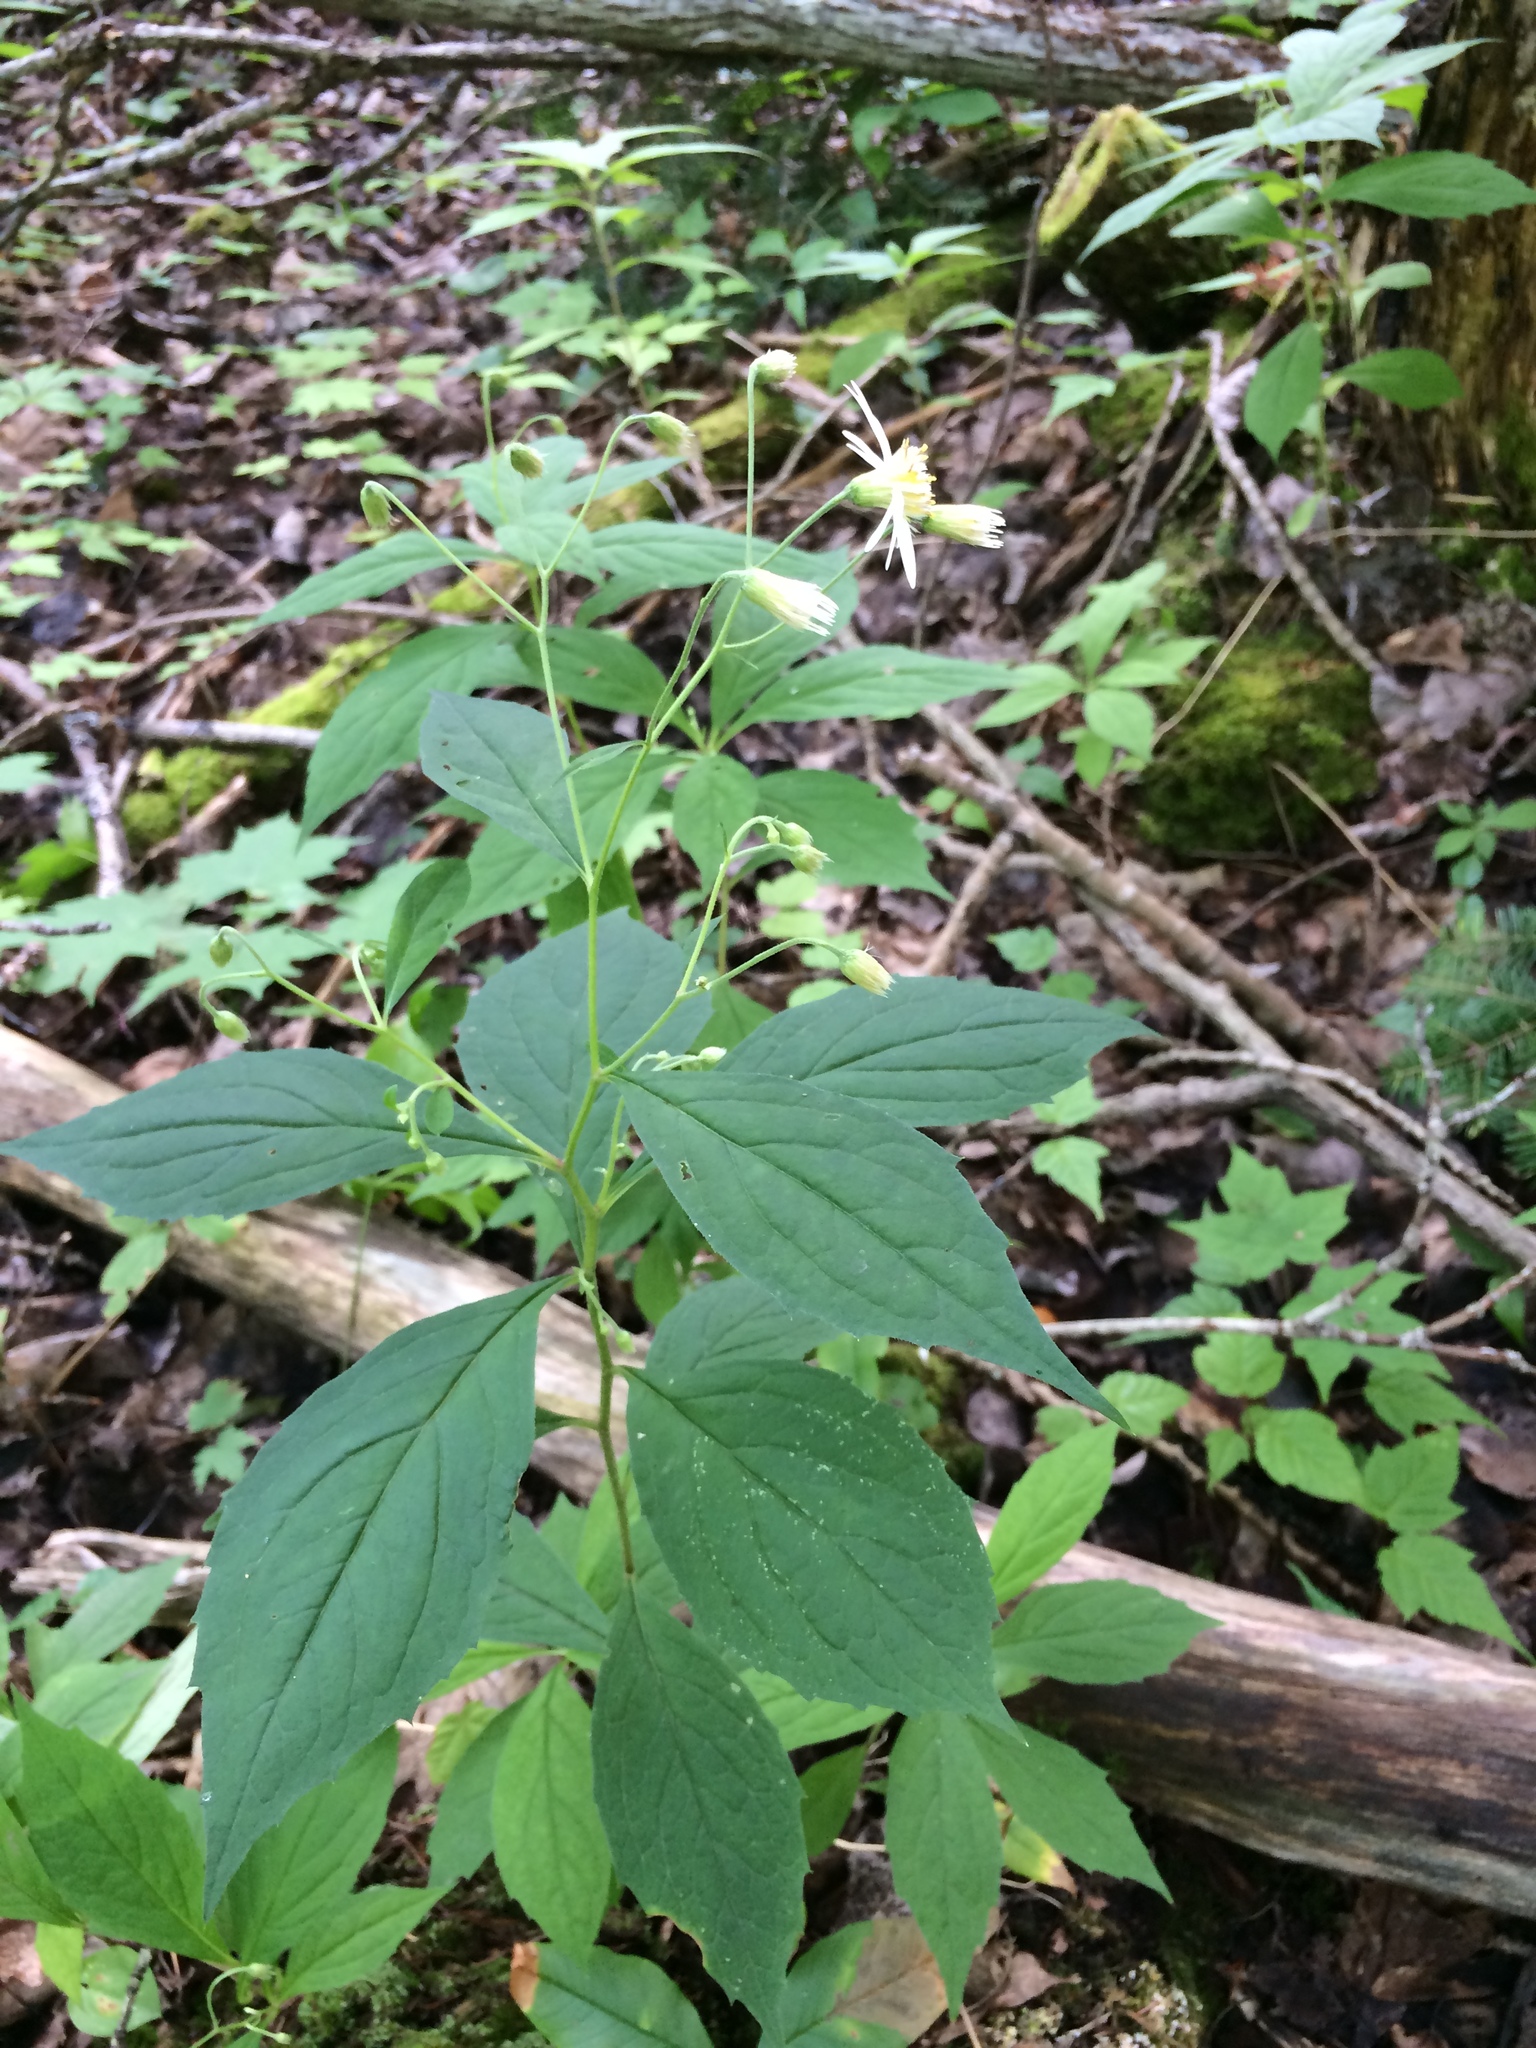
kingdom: Plantae
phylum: Tracheophyta
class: Magnoliopsida
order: Asterales
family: Asteraceae
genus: Oclemena
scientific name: Oclemena acuminata
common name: Mountain aster
